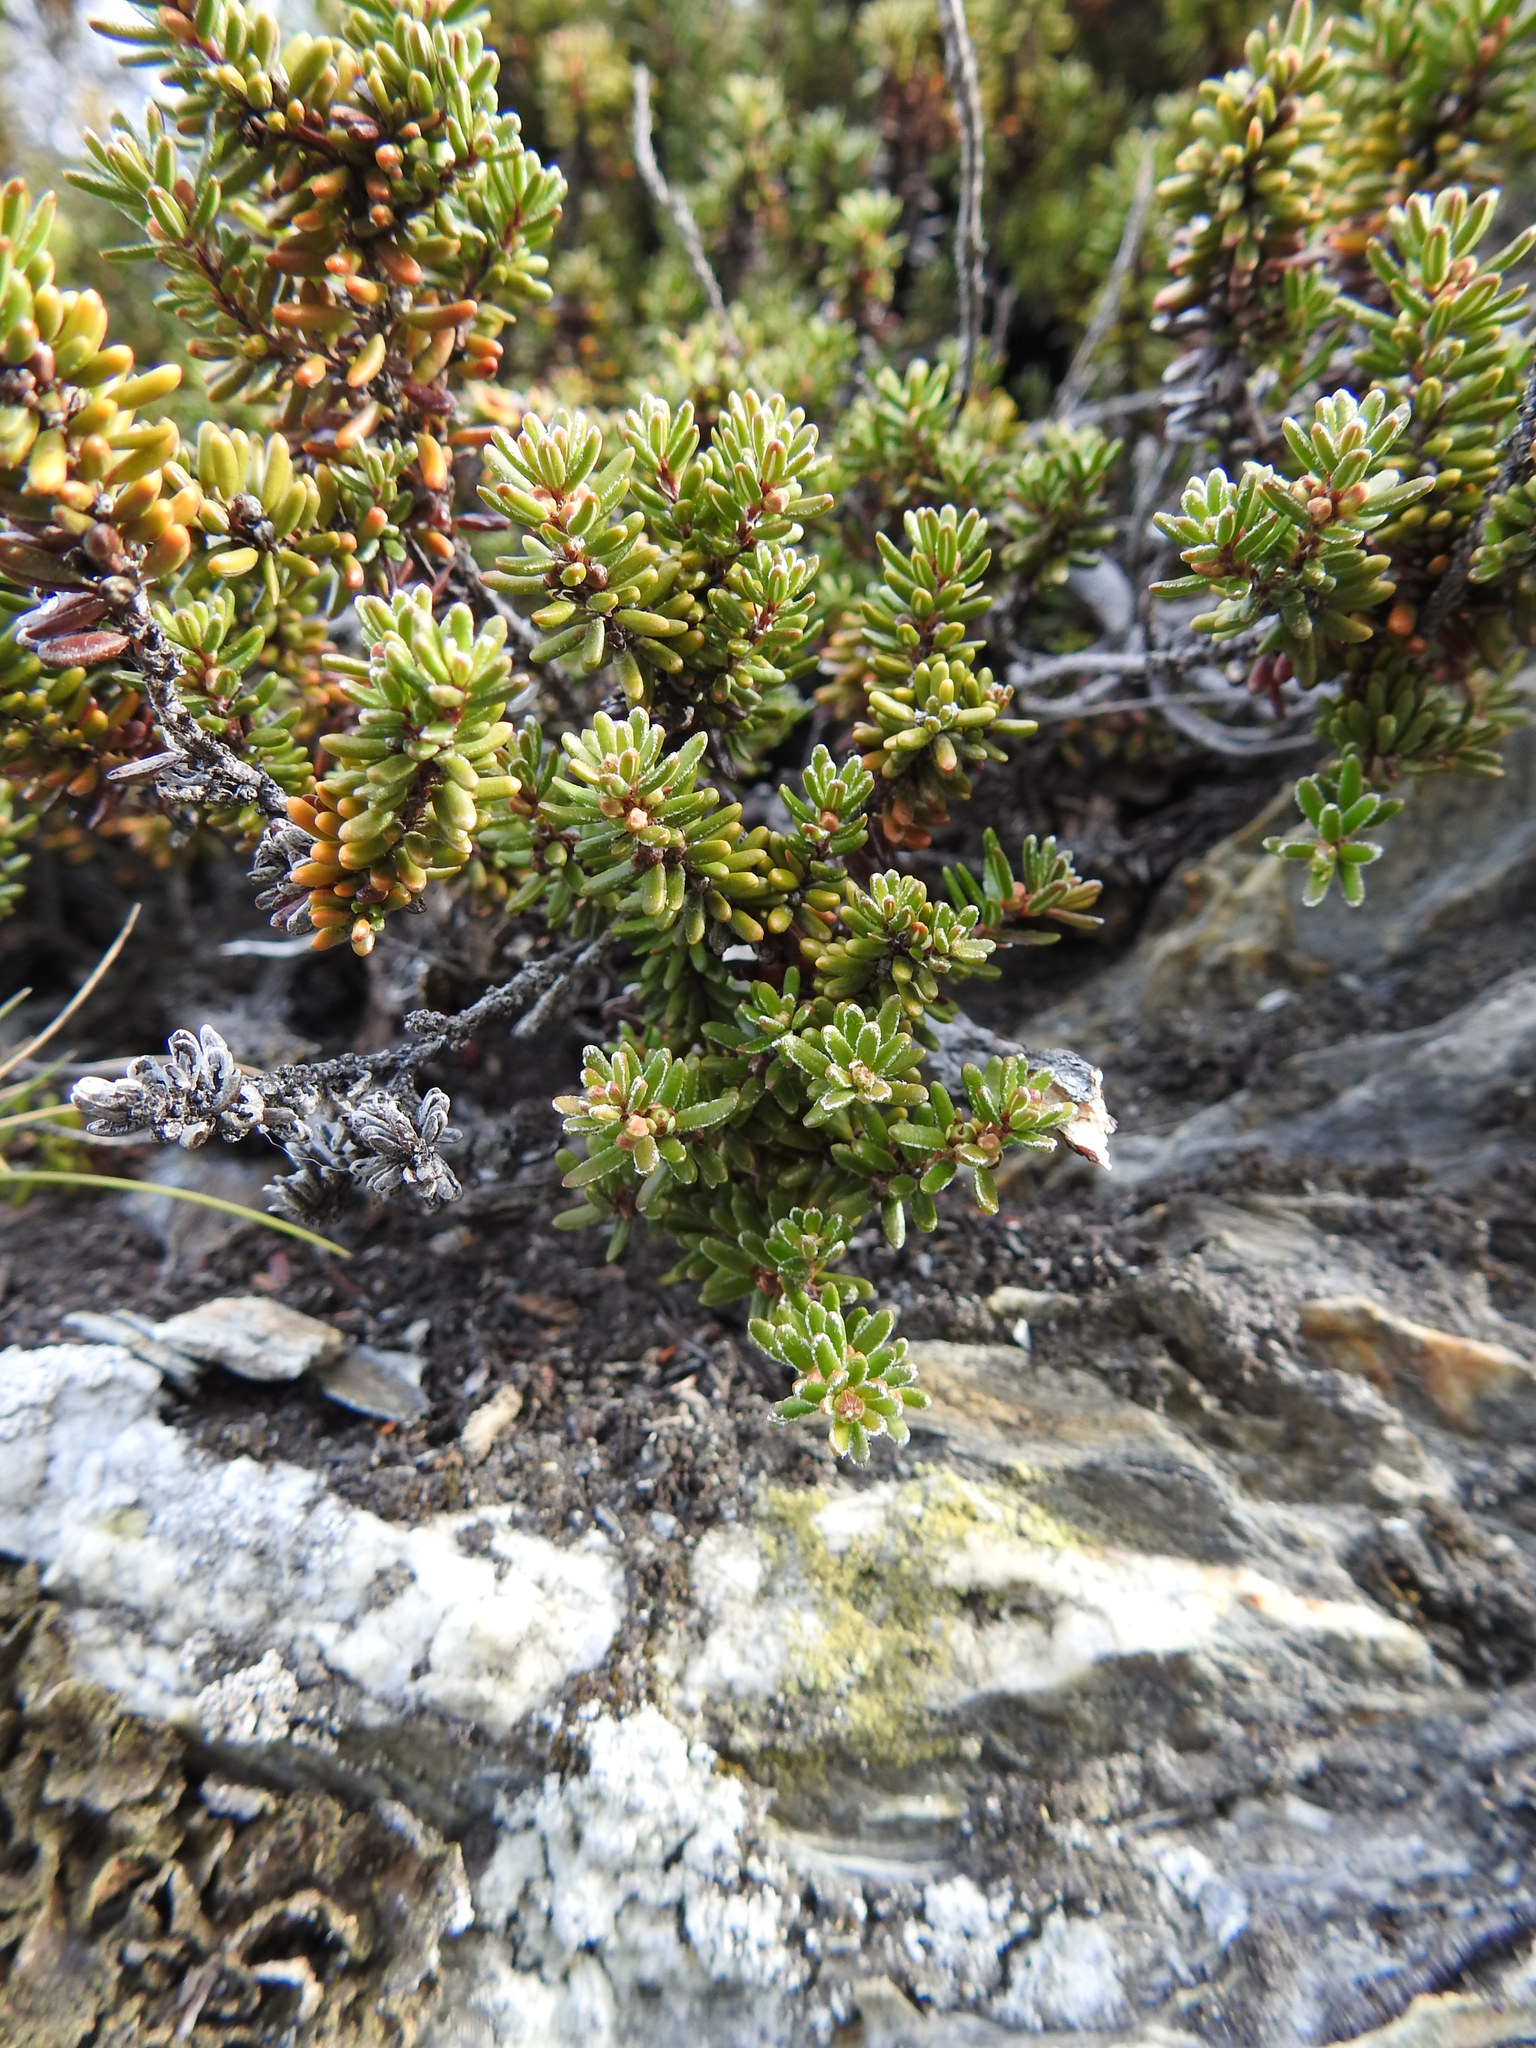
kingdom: Plantae
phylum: Tracheophyta
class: Magnoliopsida
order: Ericales
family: Ericaceae
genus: Empetrum
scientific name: Empetrum rubrum
